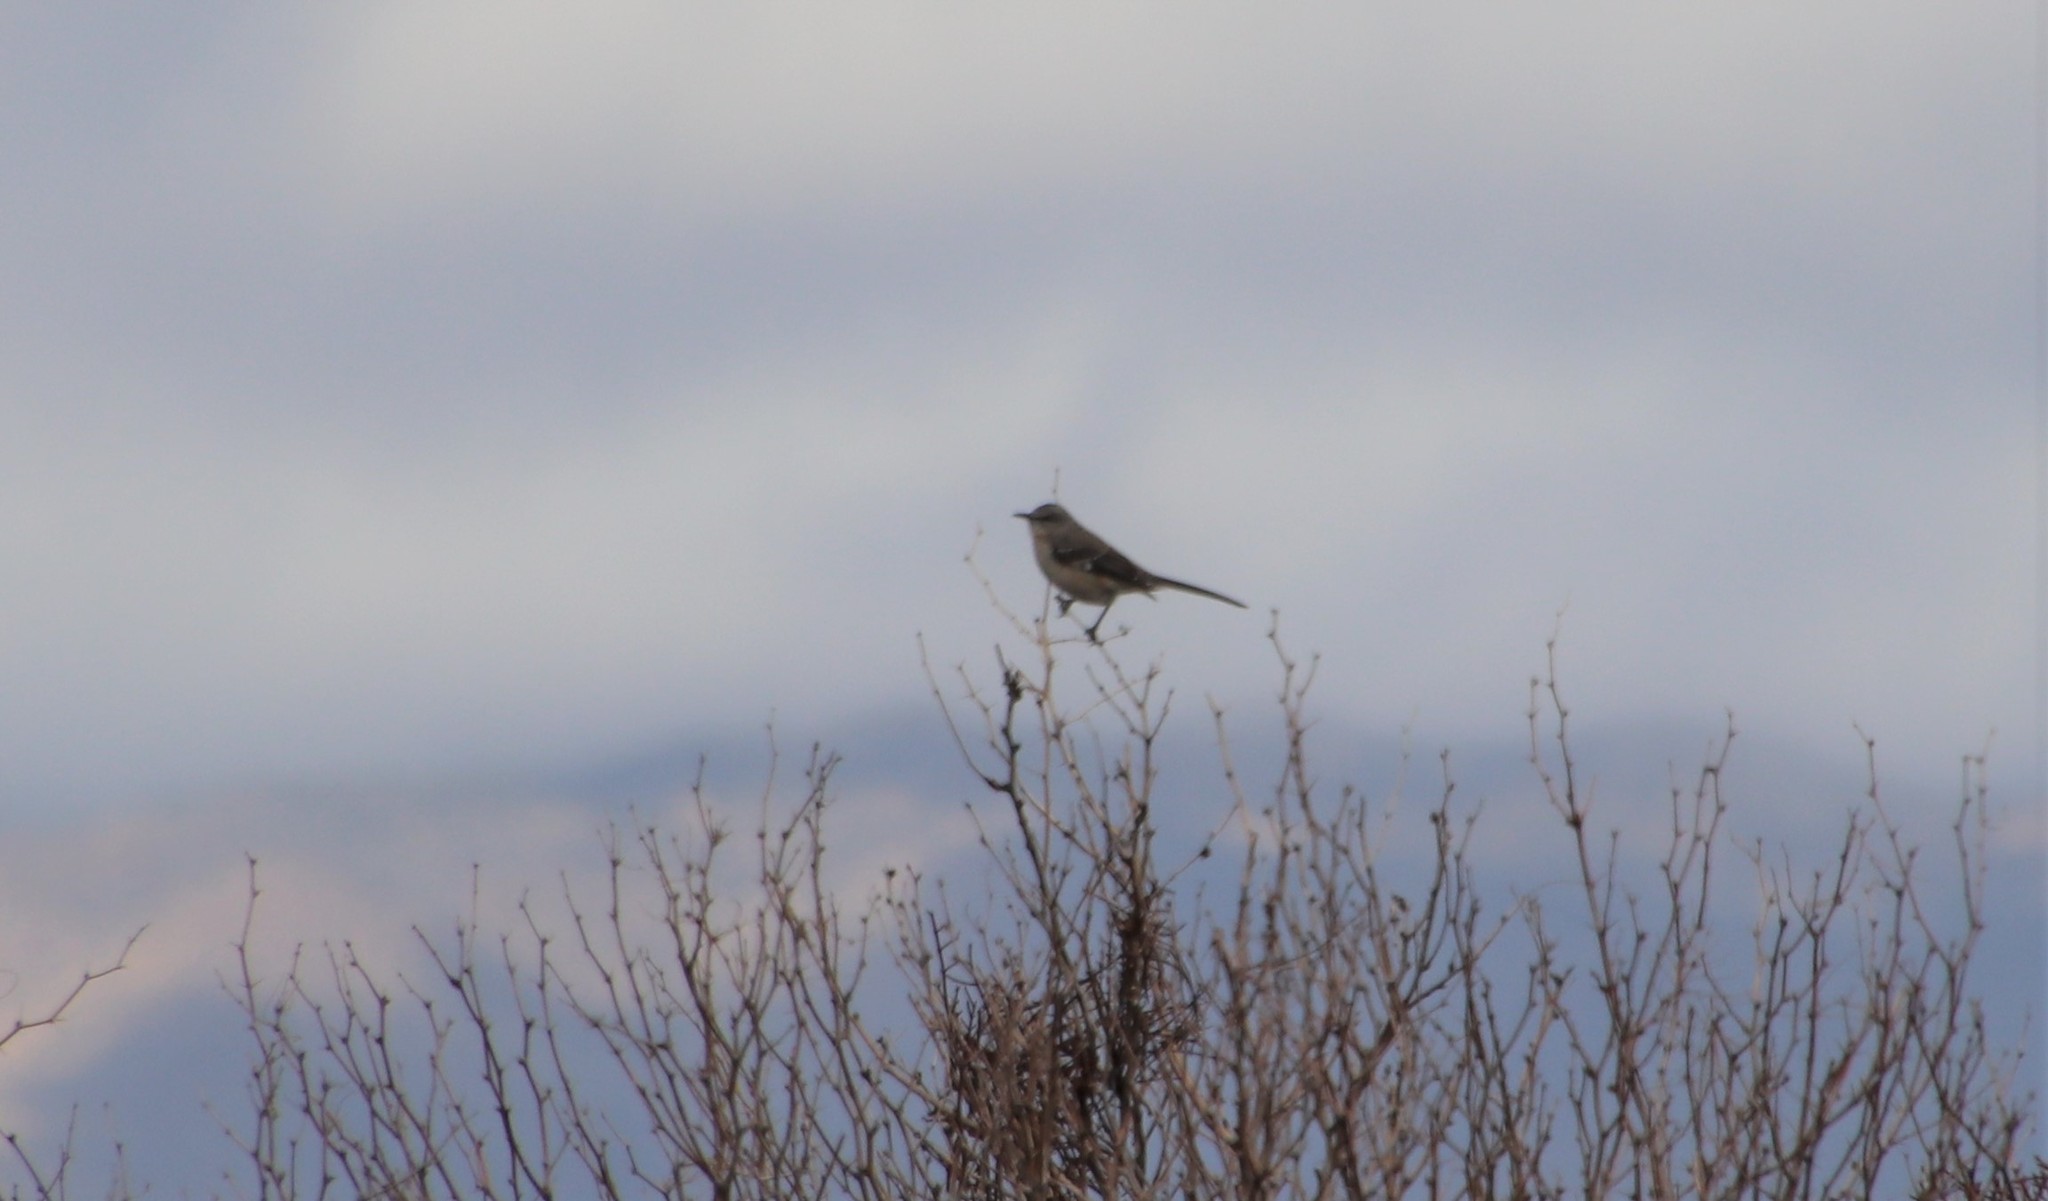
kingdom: Animalia
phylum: Chordata
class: Aves
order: Passeriformes
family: Mimidae
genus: Mimus
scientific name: Mimus polyglottos
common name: Northern mockingbird
